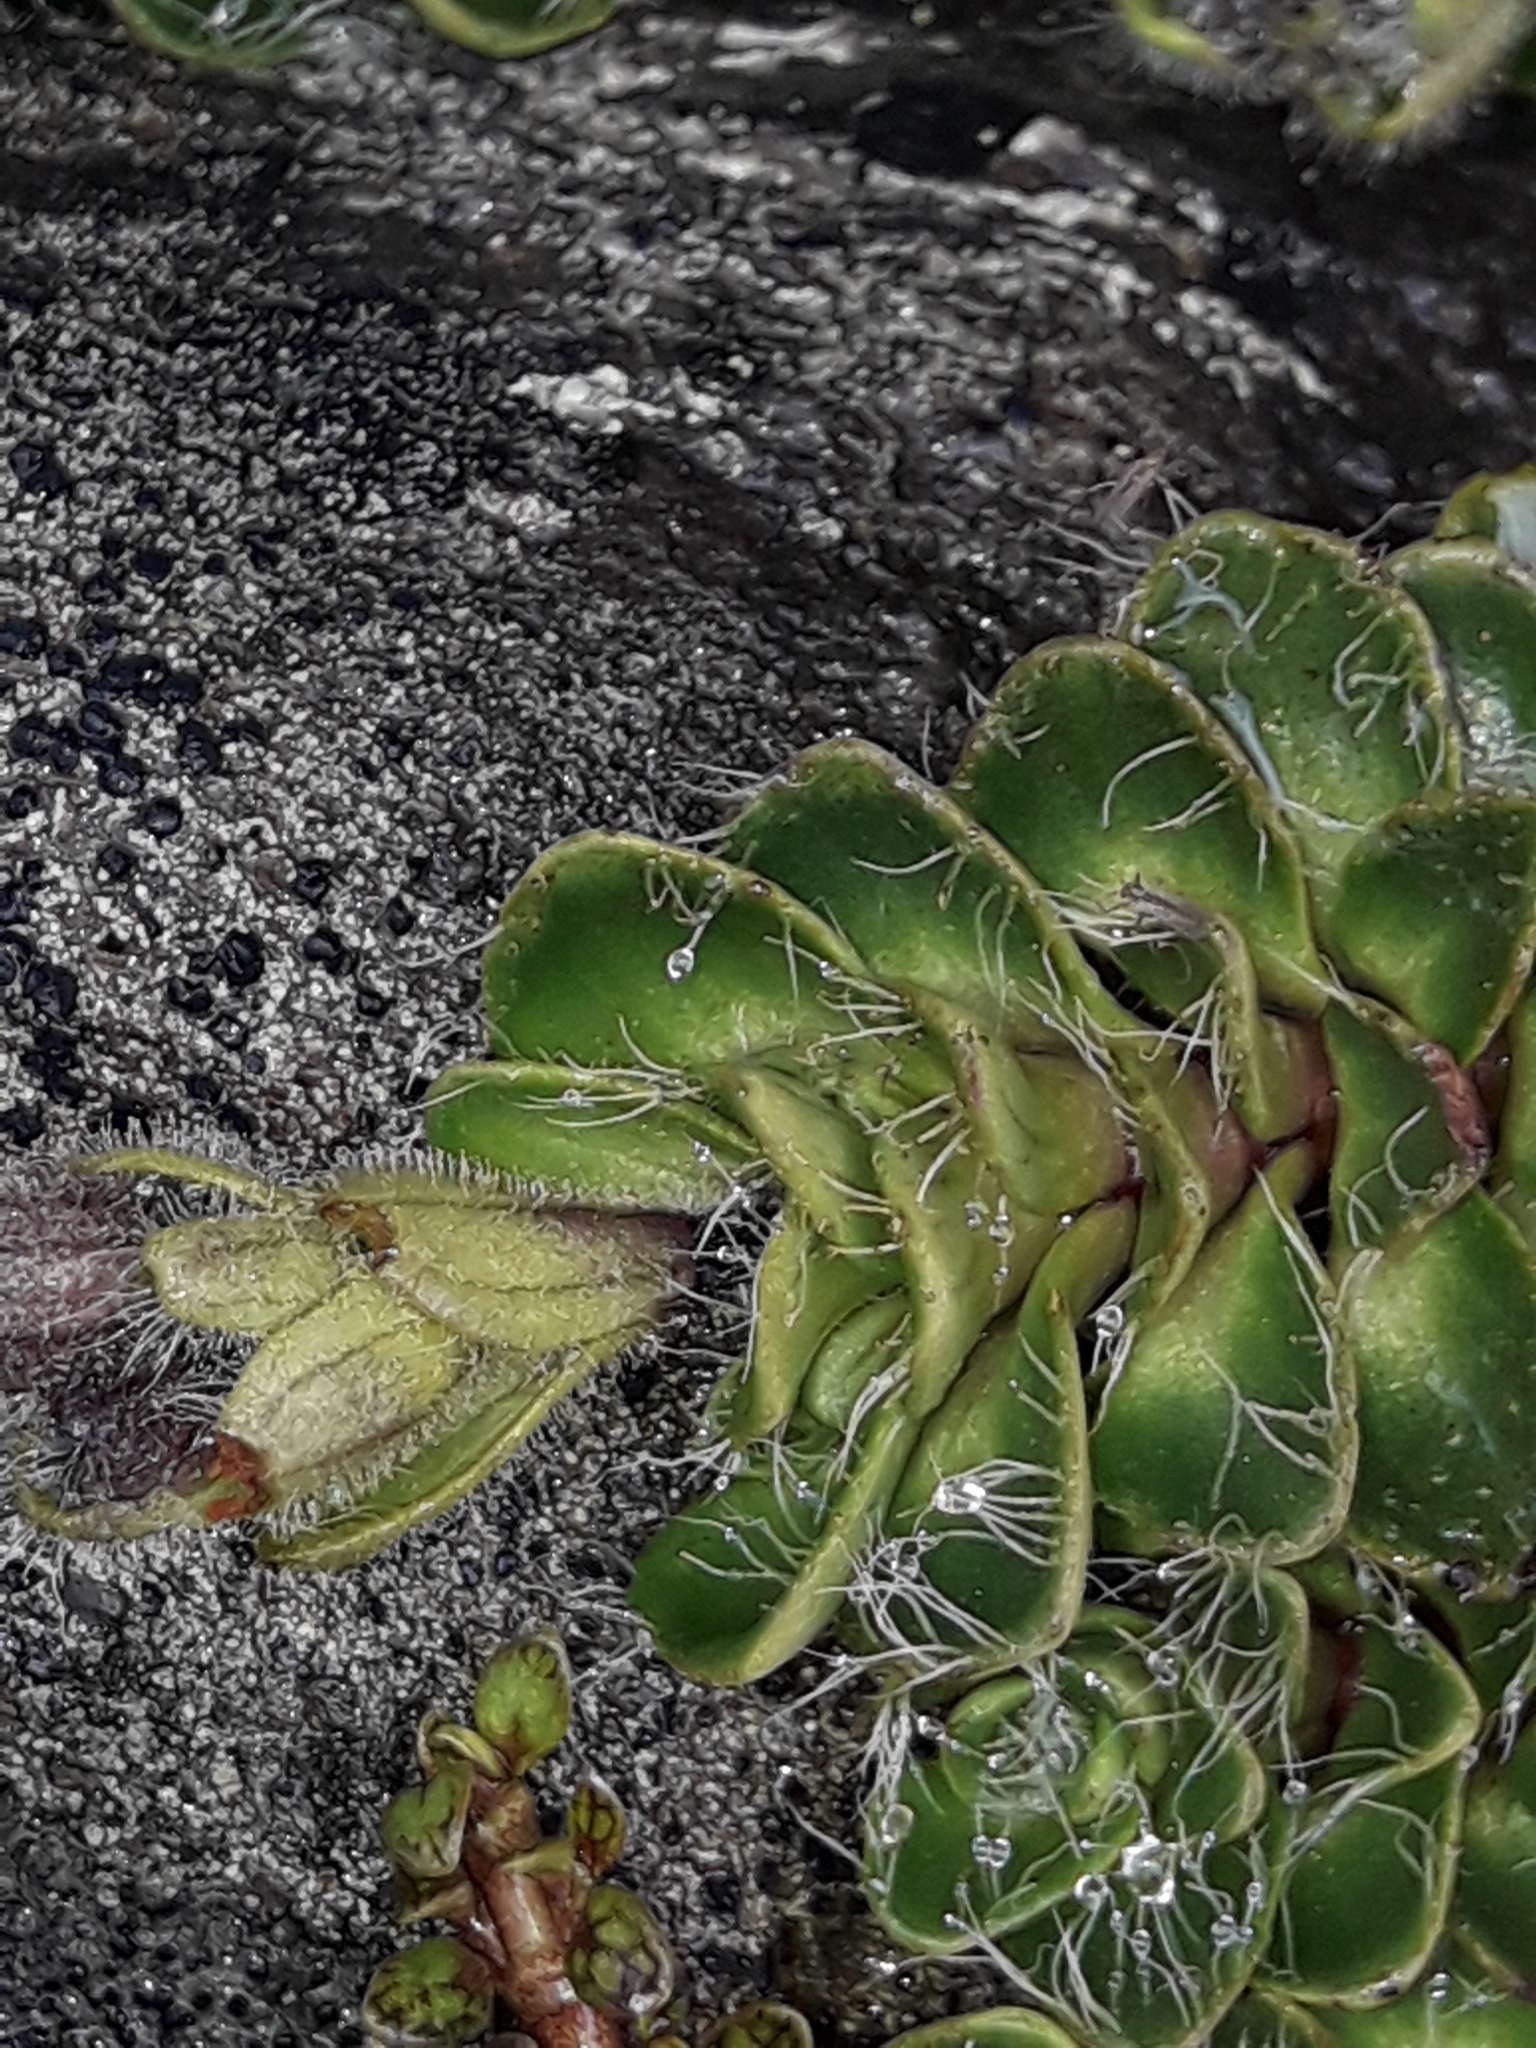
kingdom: Plantae
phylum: Tracheophyta
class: Magnoliopsida
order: Lamiales
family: Plantaginaceae
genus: Ourisia
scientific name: Ourisia glandulosa
